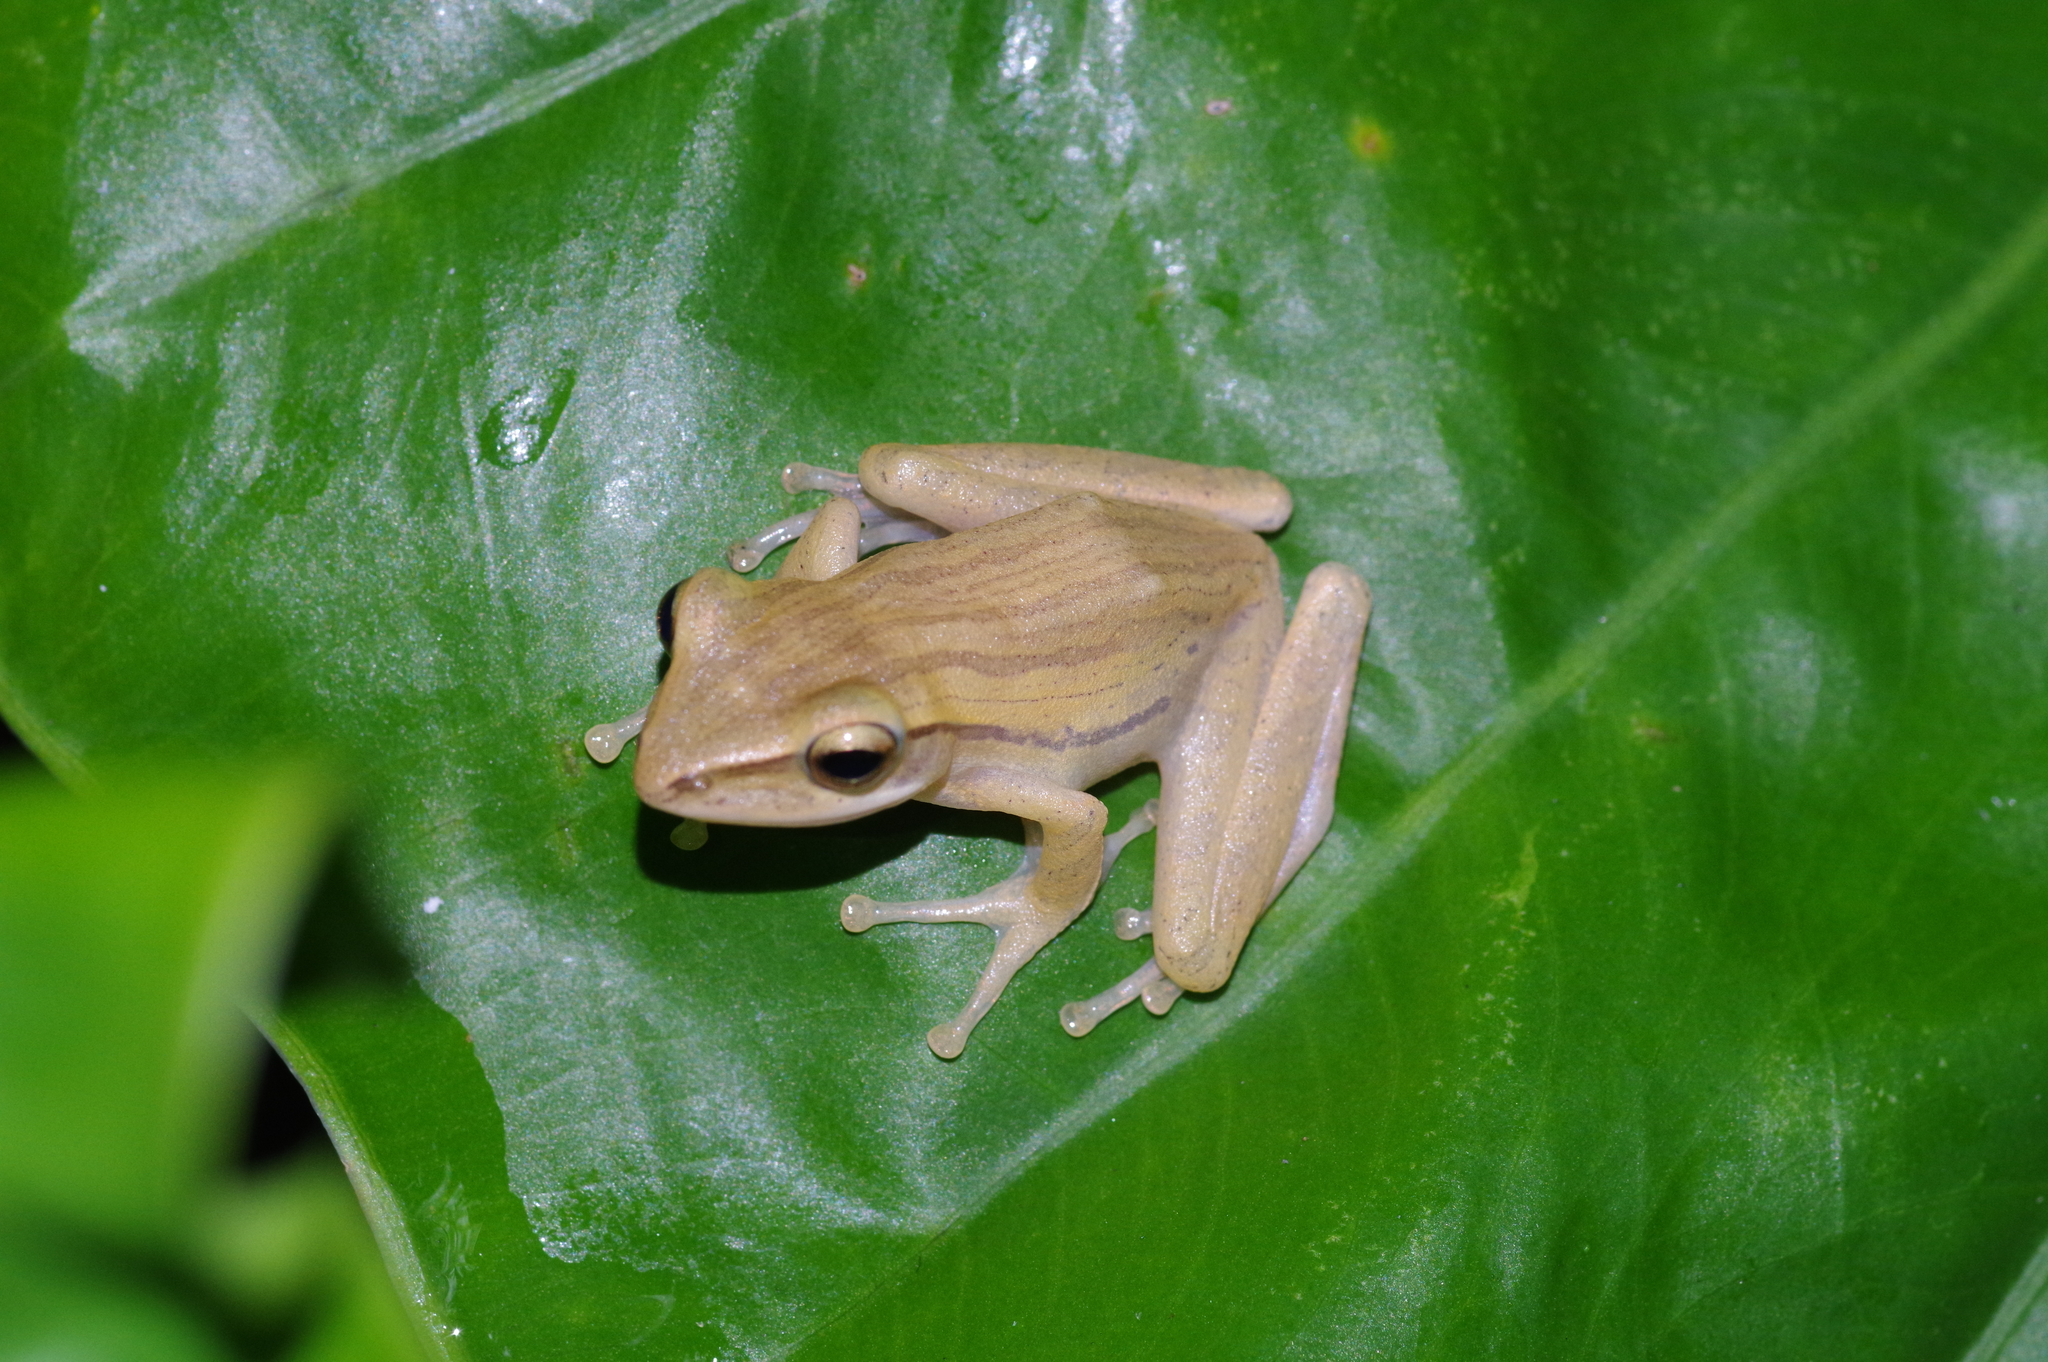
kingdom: Animalia
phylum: Chordata
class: Amphibia
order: Anura
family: Rhacophoridae
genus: Polypedates
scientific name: Polypedates leucomystax
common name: Common tree frog/four-lined tree frog
